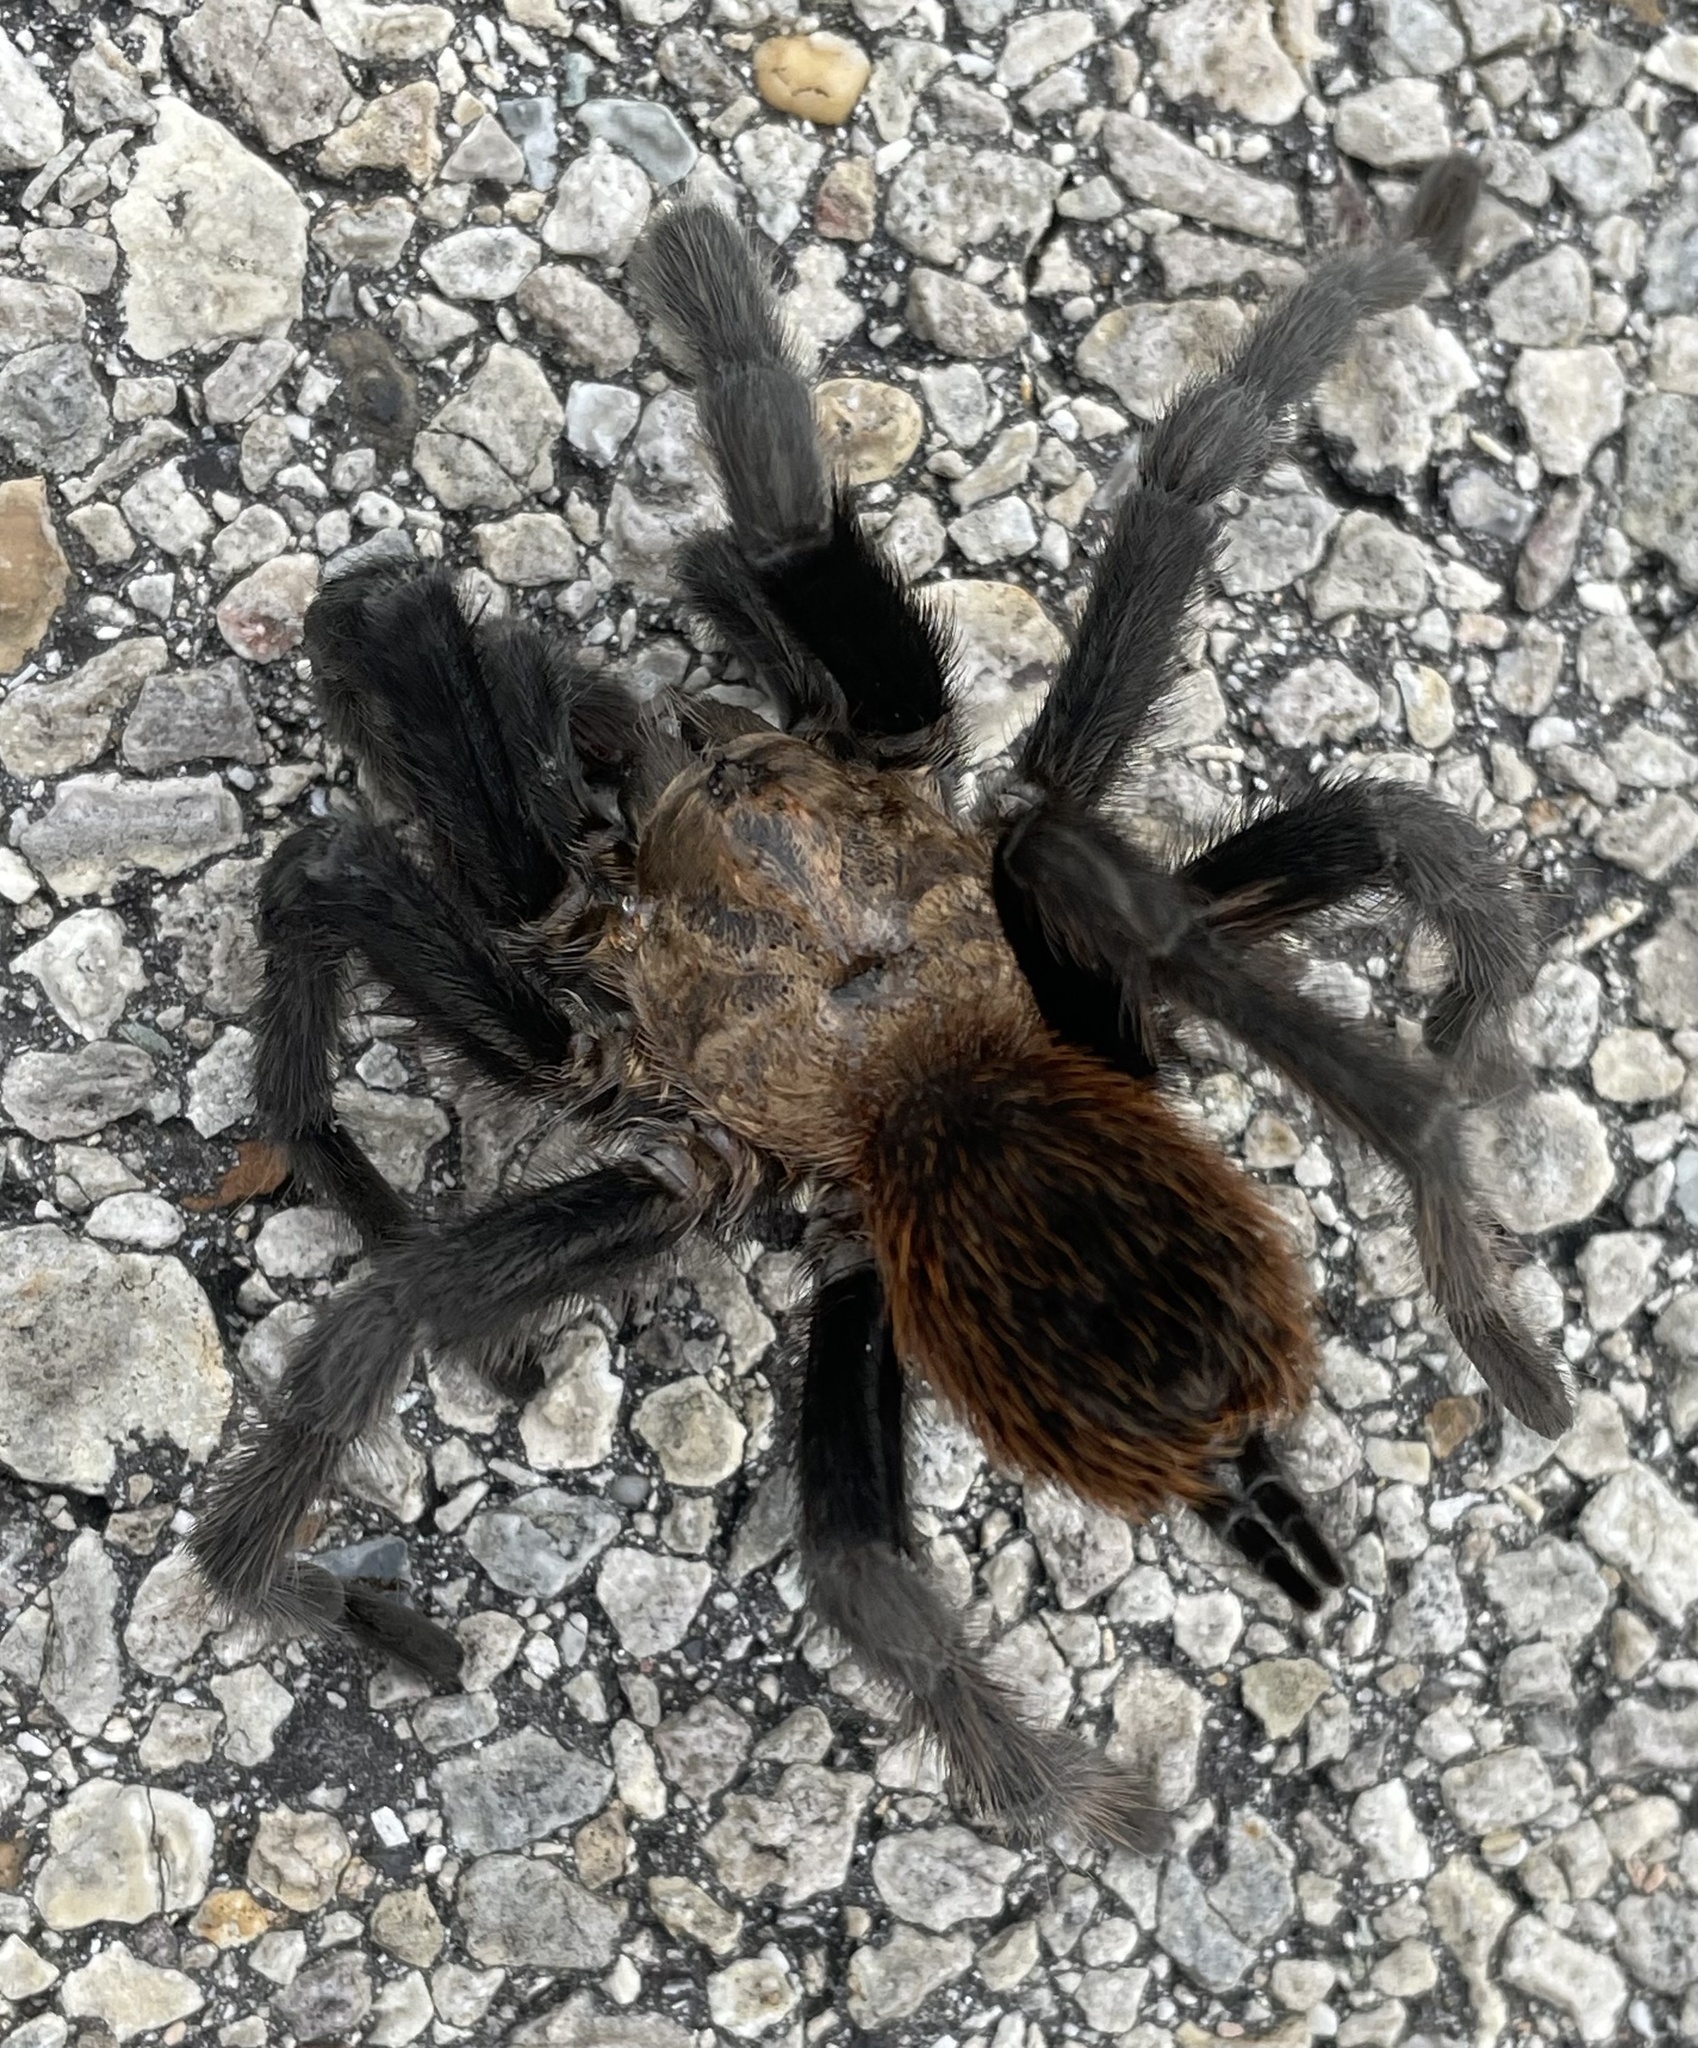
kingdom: Animalia
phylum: Arthropoda
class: Arachnida
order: Araneae
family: Theraphosidae
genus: Aphonopelma
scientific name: Aphonopelma hentzi
